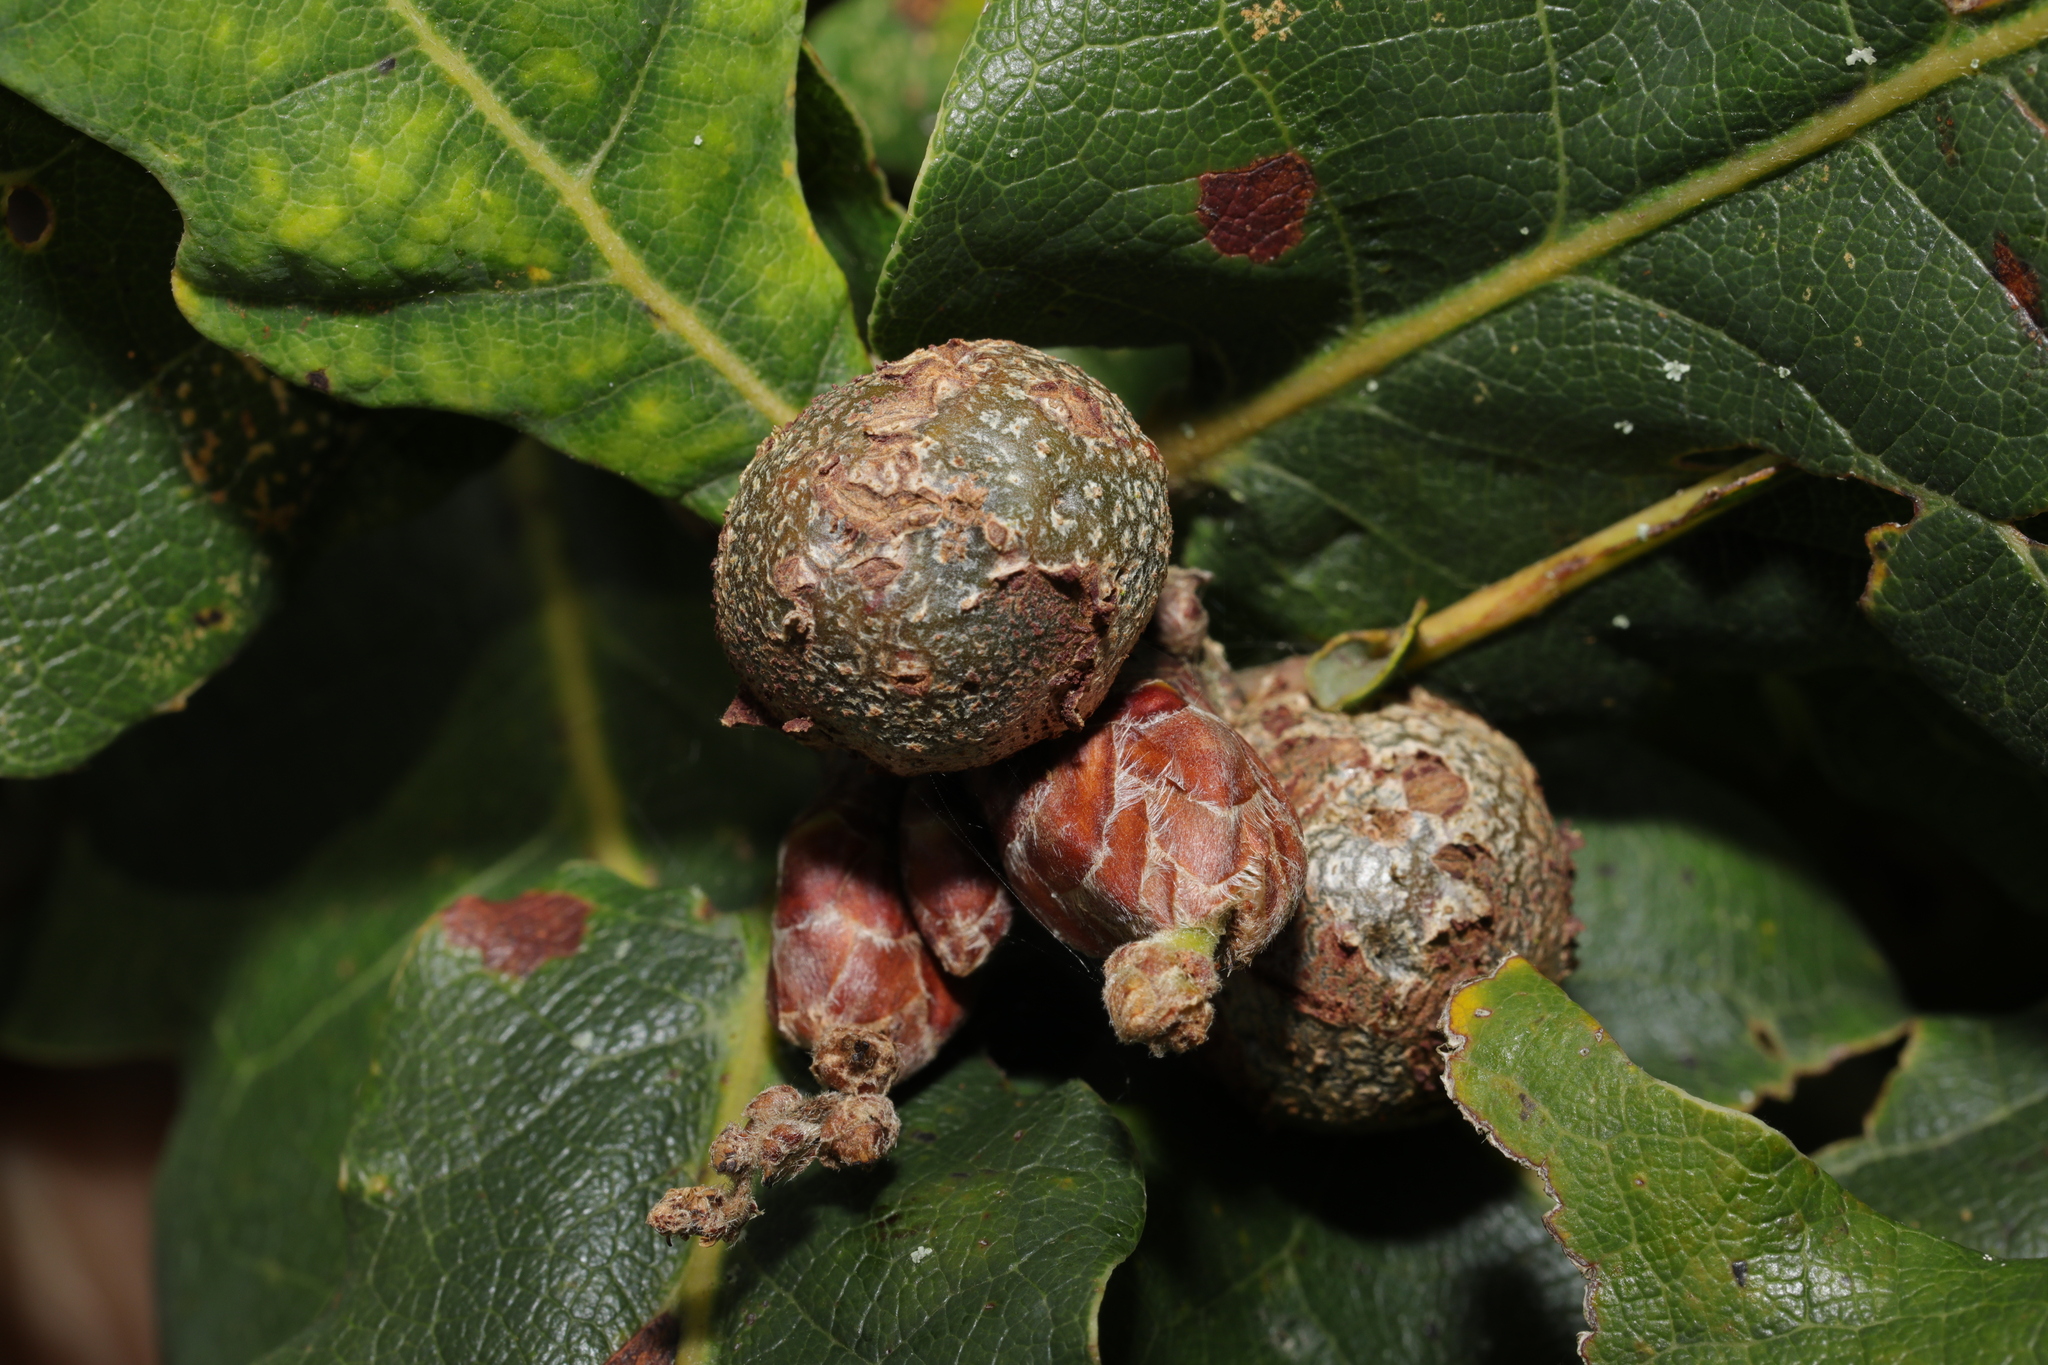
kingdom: Animalia
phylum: Arthropoda
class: Insecta
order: Hymenoptera
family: Cynipidae
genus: Andricus
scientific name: Andricus lignicolus
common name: Cola-nut gall
